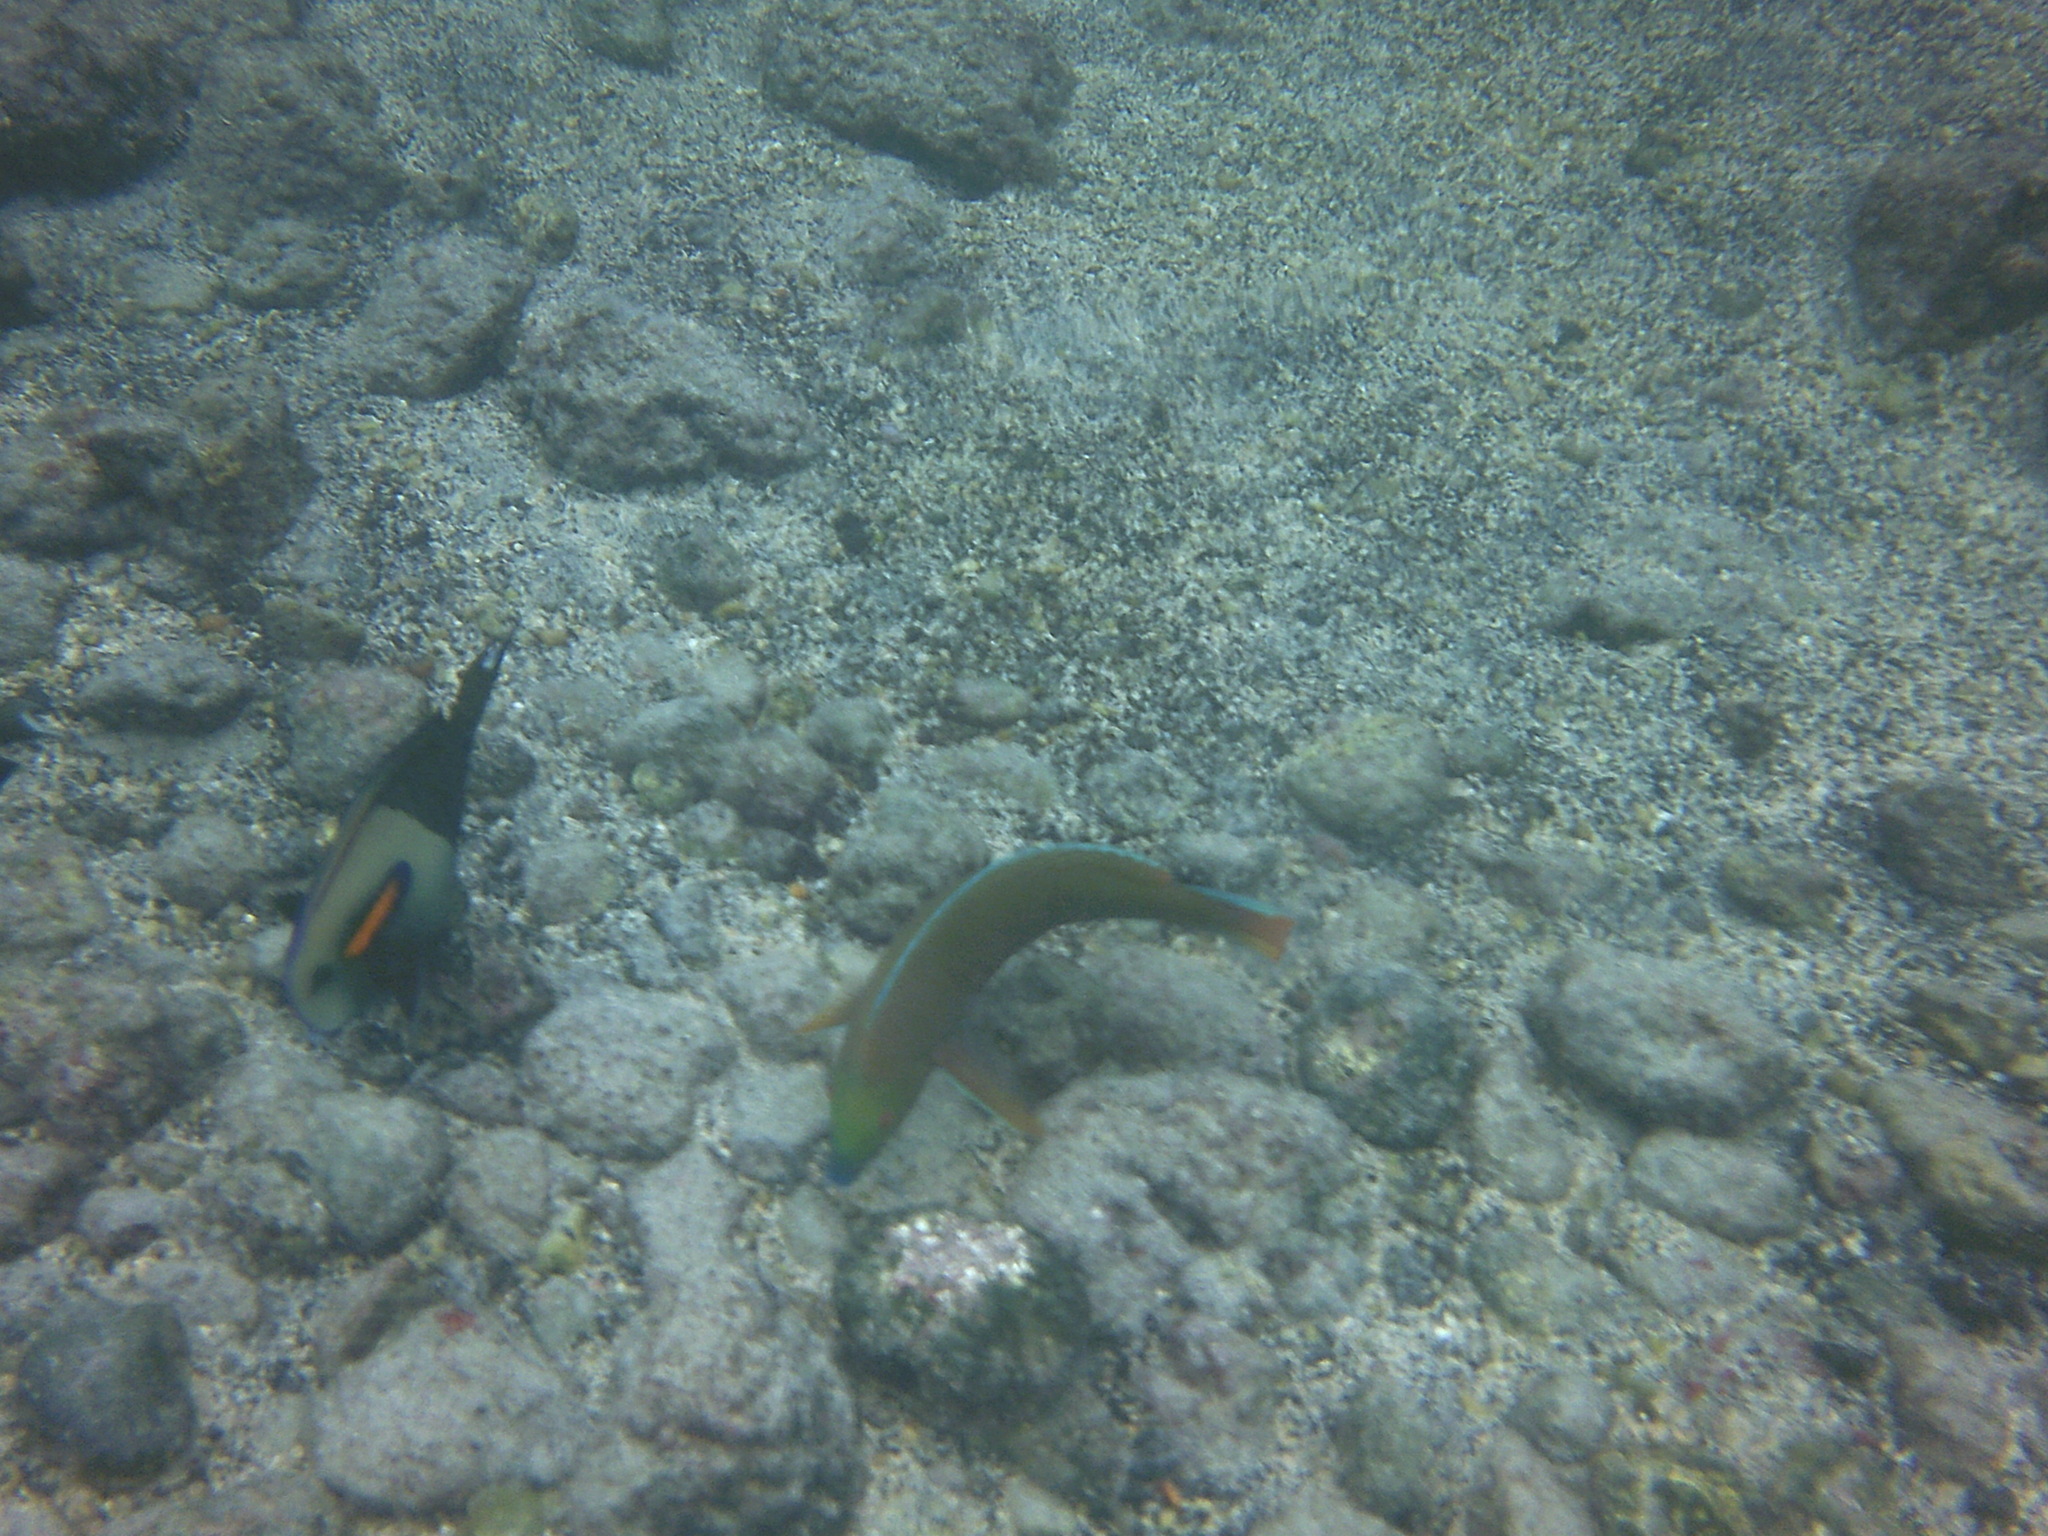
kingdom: Animalia
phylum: Chordata
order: Perciformes
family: Labridae
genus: Anampses
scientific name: Anampses cuvier
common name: Pearl wrasse
